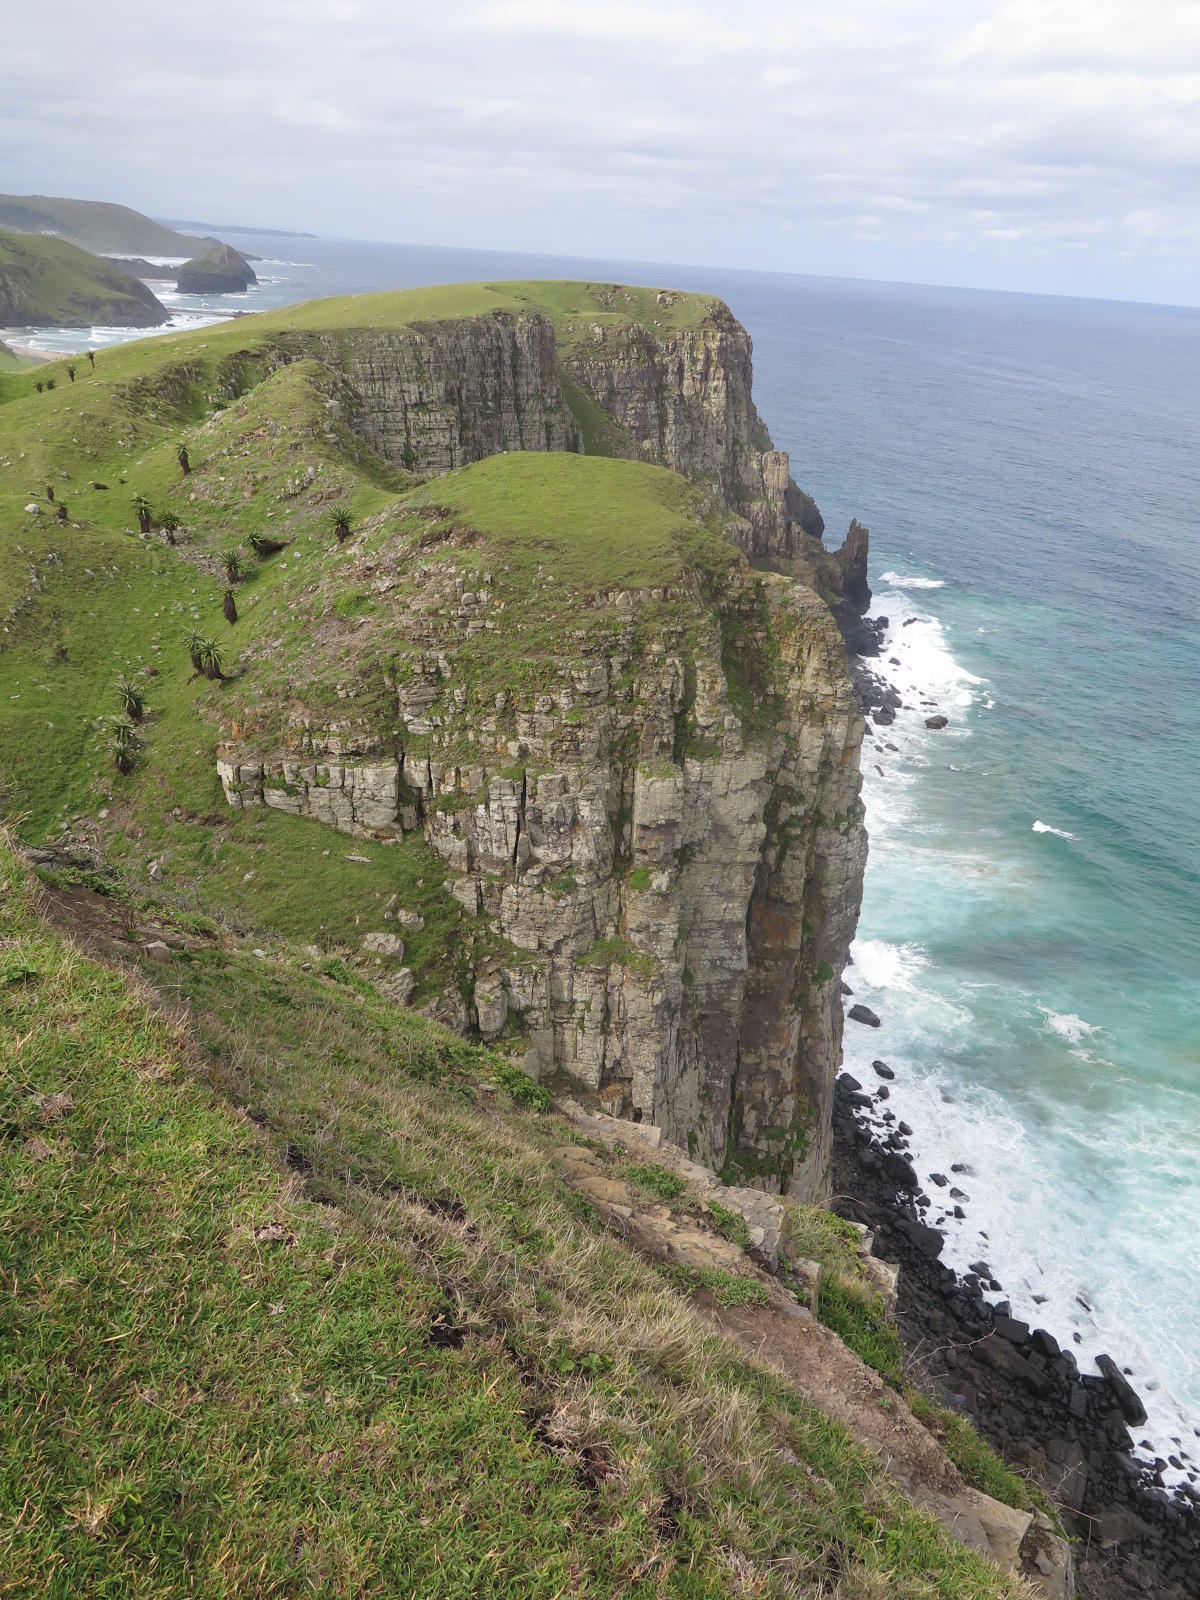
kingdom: Plantae
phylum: Tracheophyta
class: Liliopsida
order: Poales
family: Poaceae
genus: Stenotaphrum
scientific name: Stenotaphrum secundatum
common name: St. augustine grass
